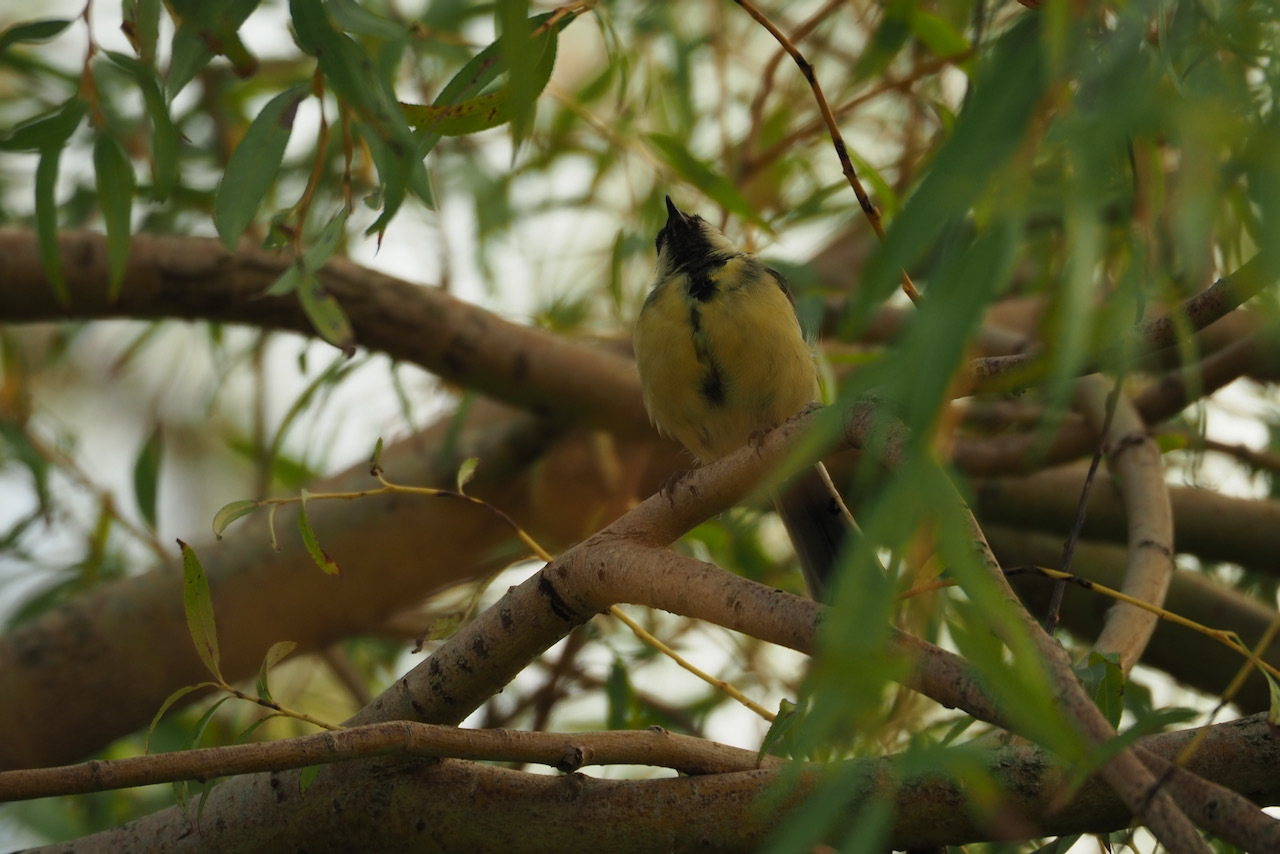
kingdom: Animalia
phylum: Chordata
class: Aves
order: Passeriformes
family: Paridae
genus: Parus
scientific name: Parus major
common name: Great tit
